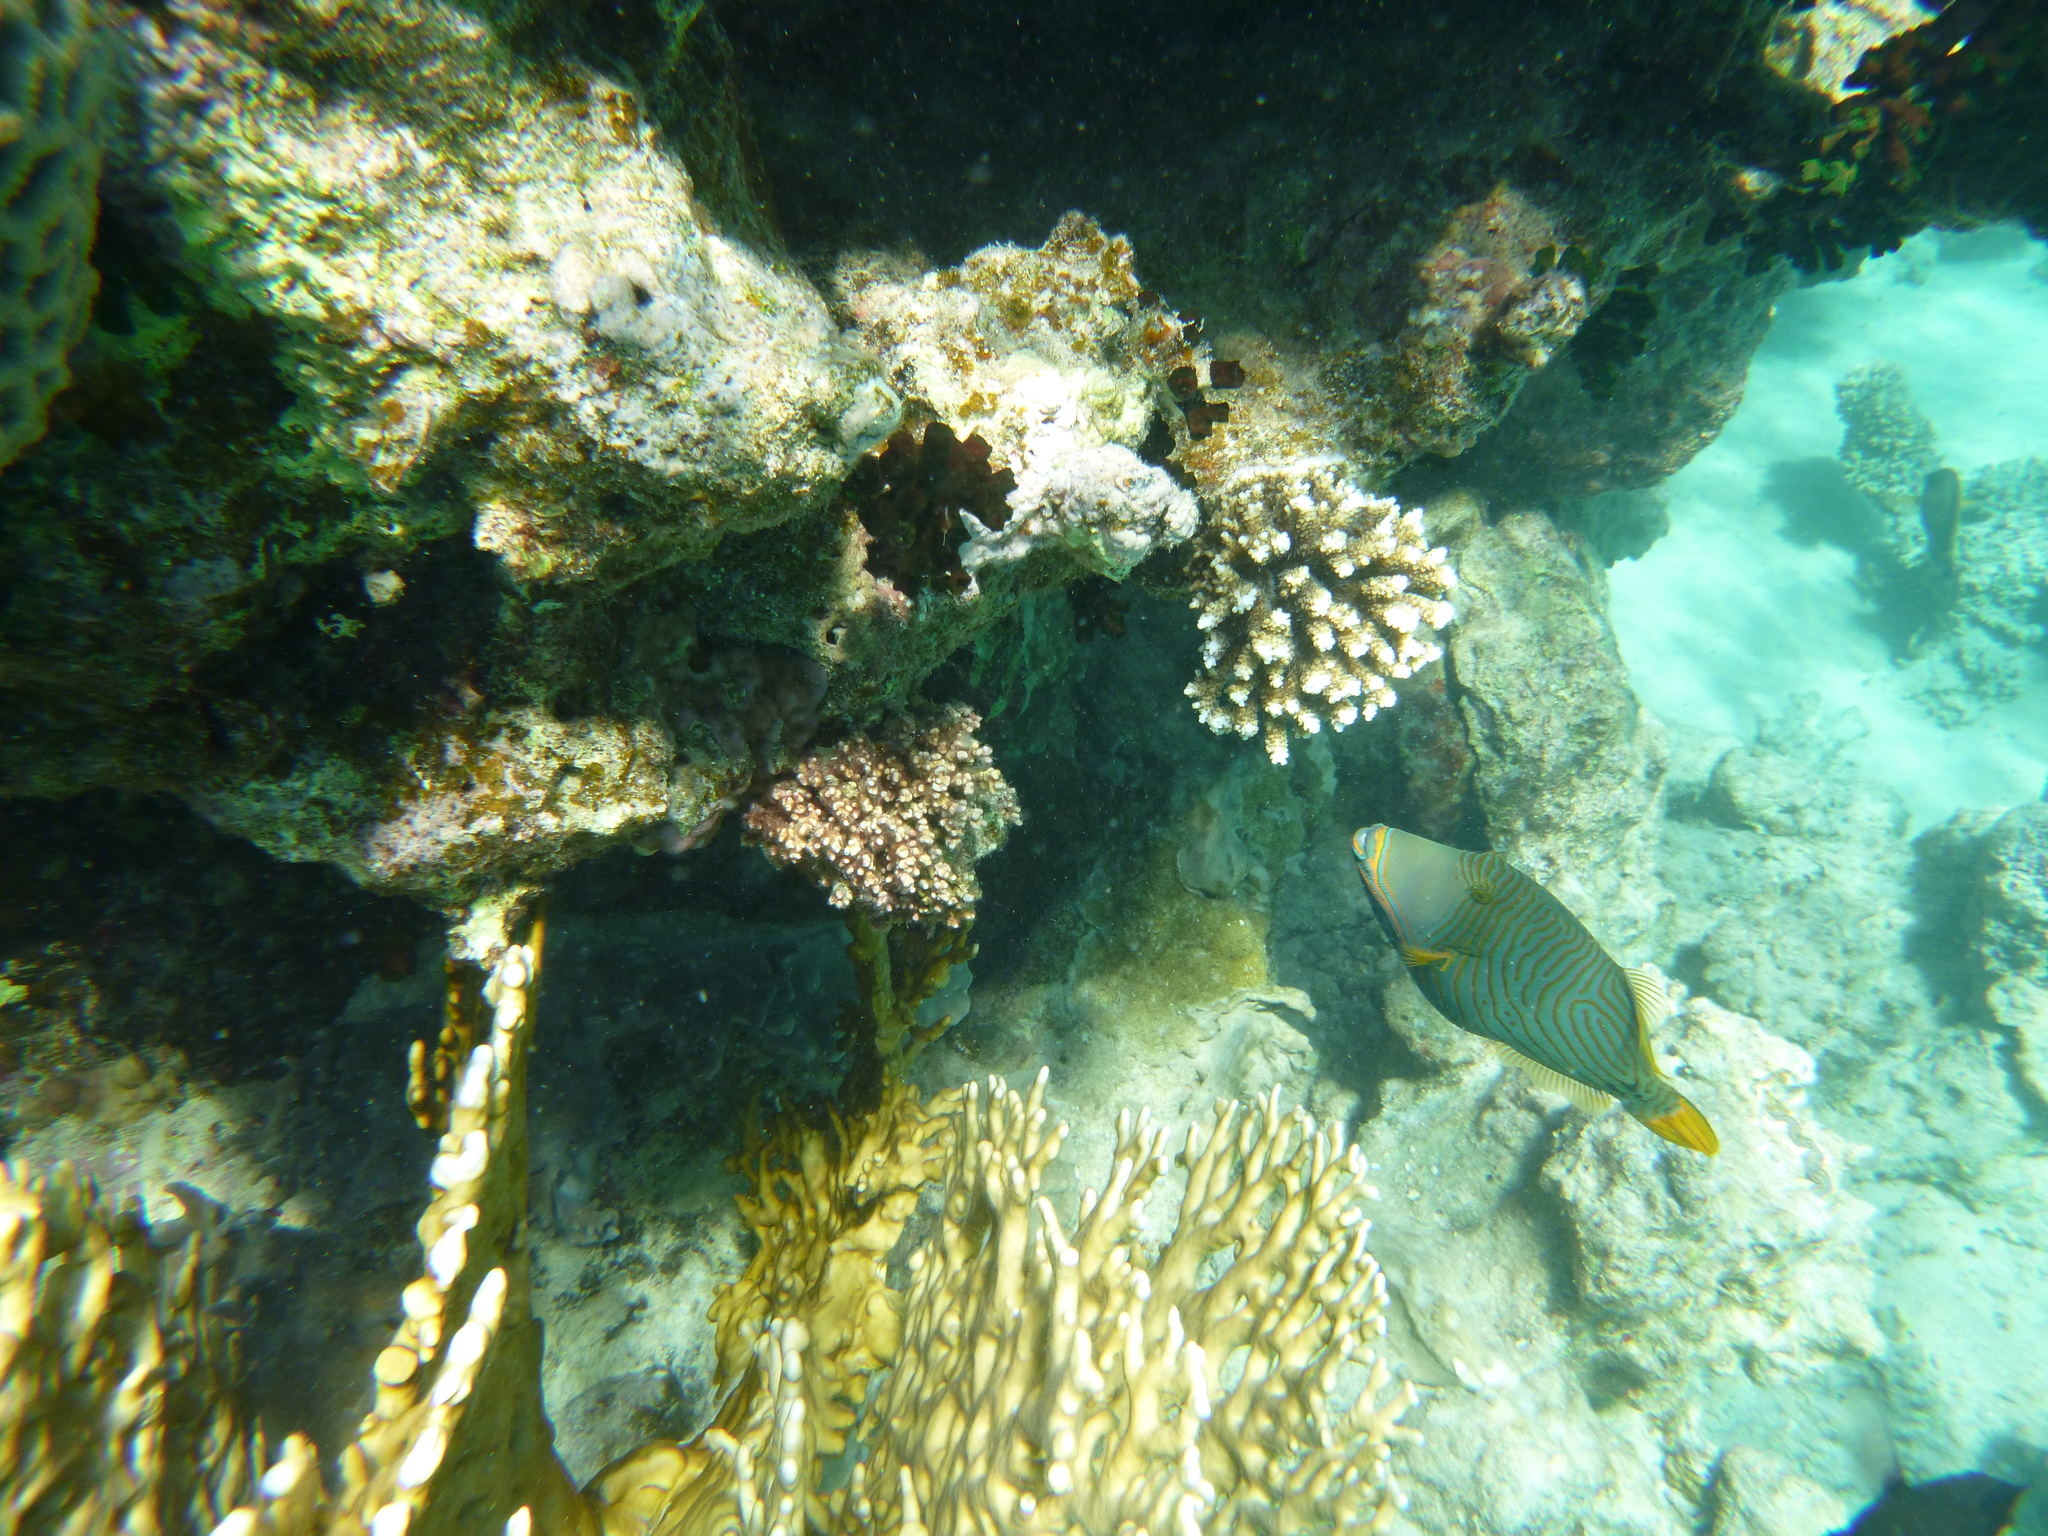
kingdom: Animalia
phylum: Chordata
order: Tetraodontiformes
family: Balistidae
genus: Balistapus
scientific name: Balistapus undulatus
